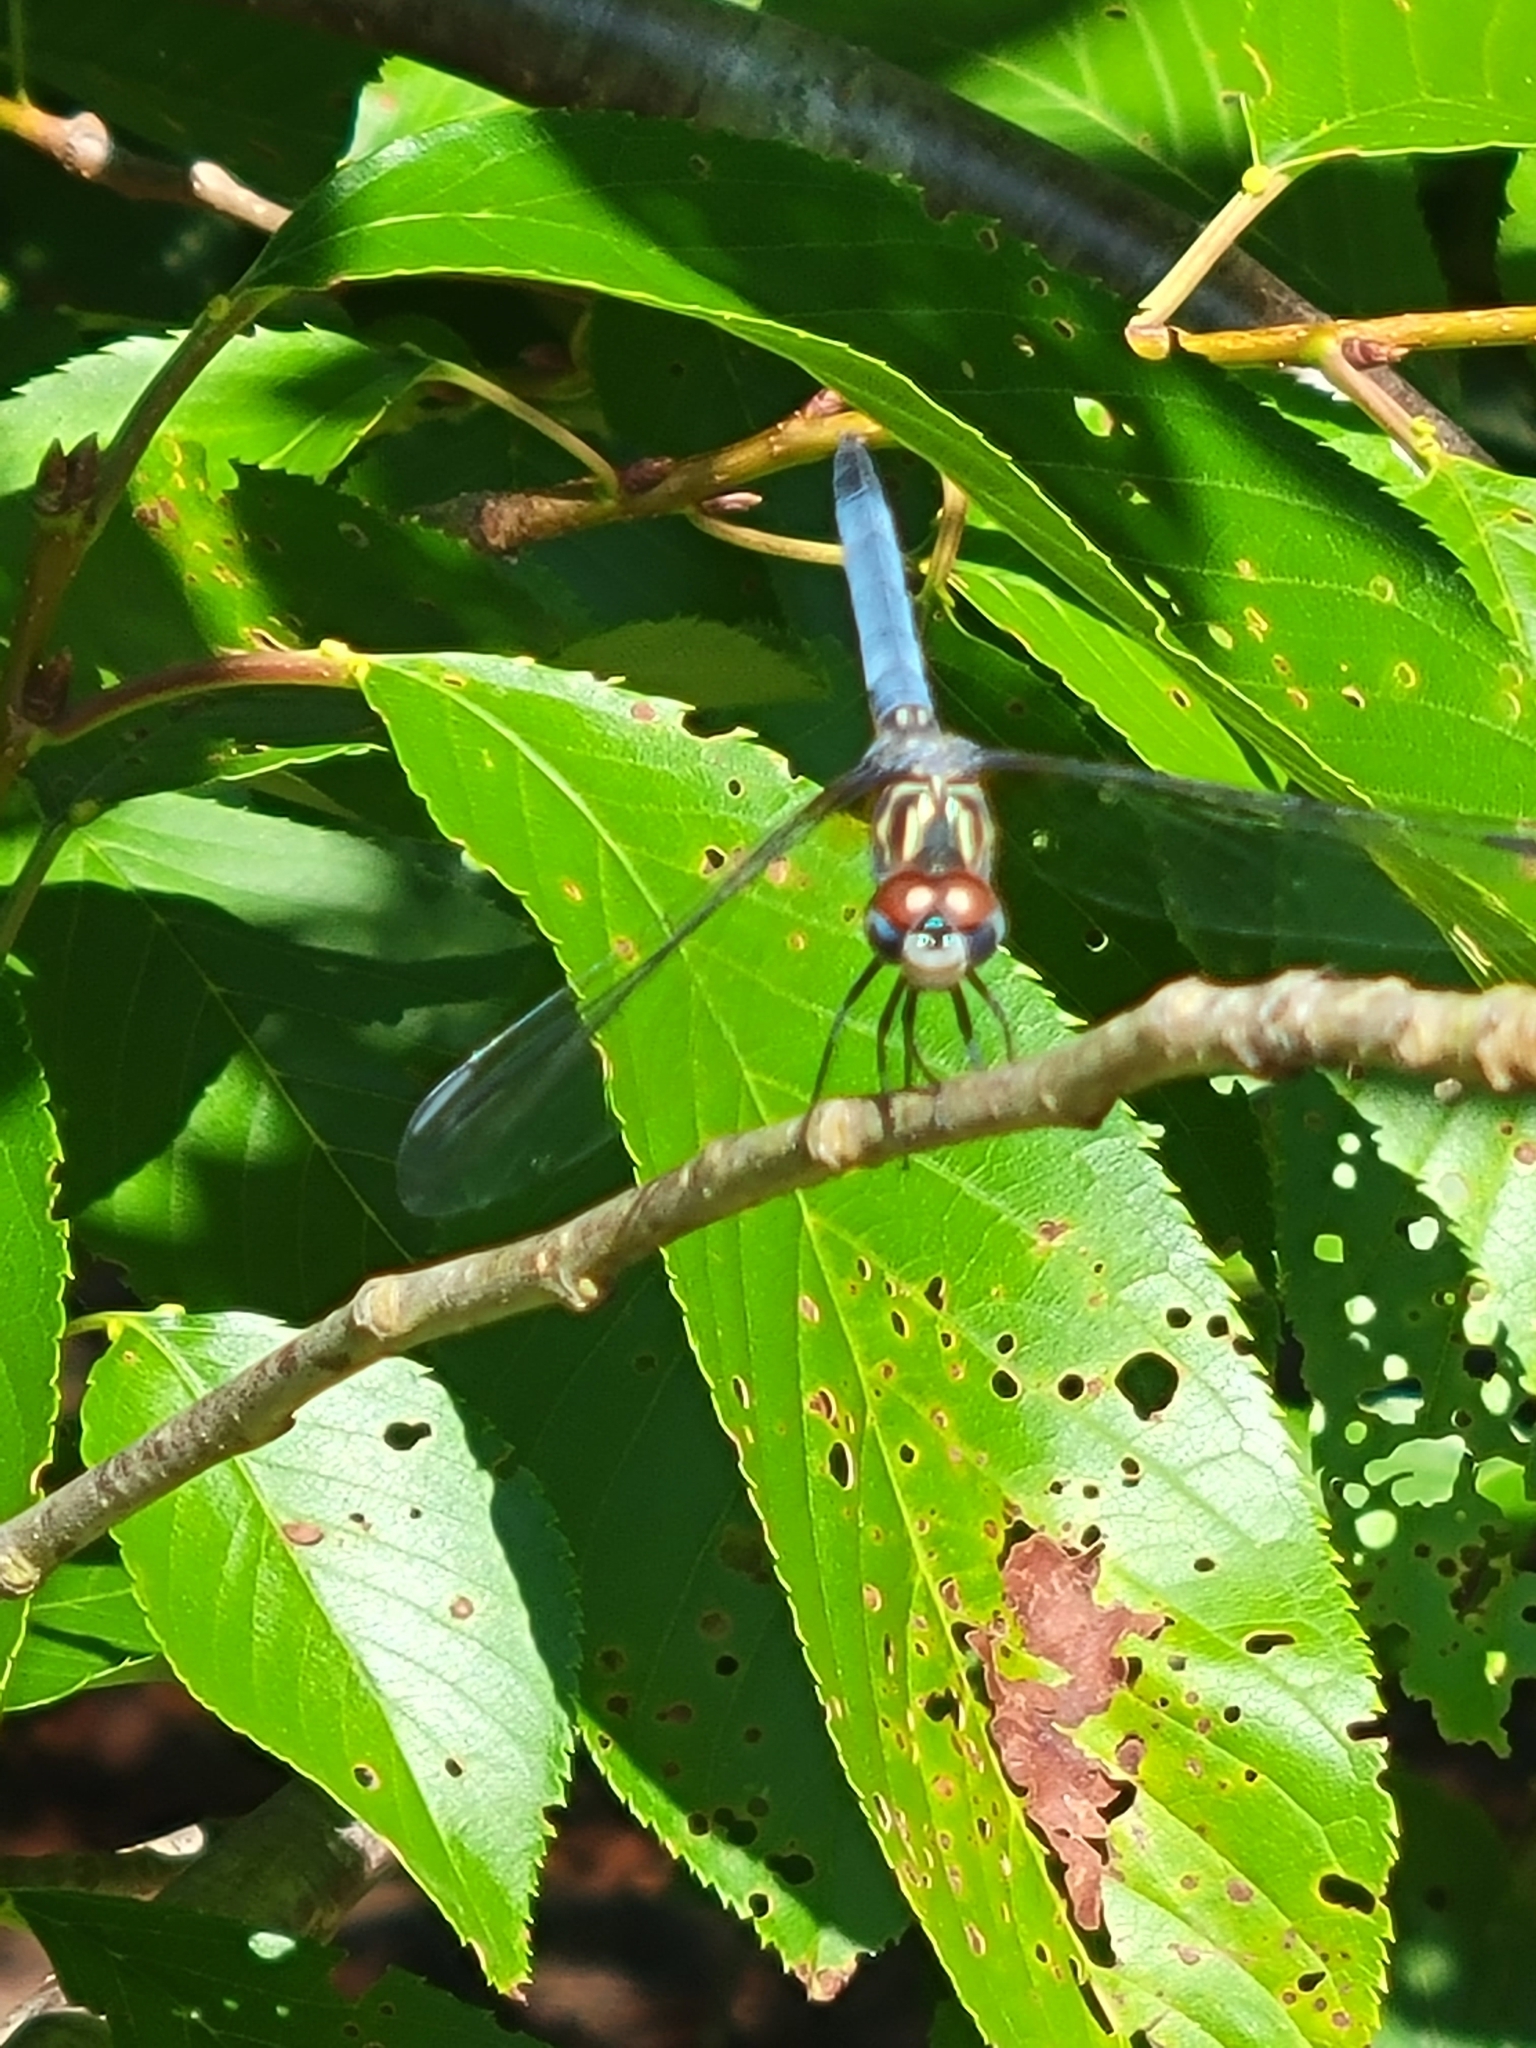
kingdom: Animalia
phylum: Arthropoda
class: Insecta
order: Odonata
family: Libellulidae
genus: Pachydiplax
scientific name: Pachydiplax longipennis
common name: Blue dasher
